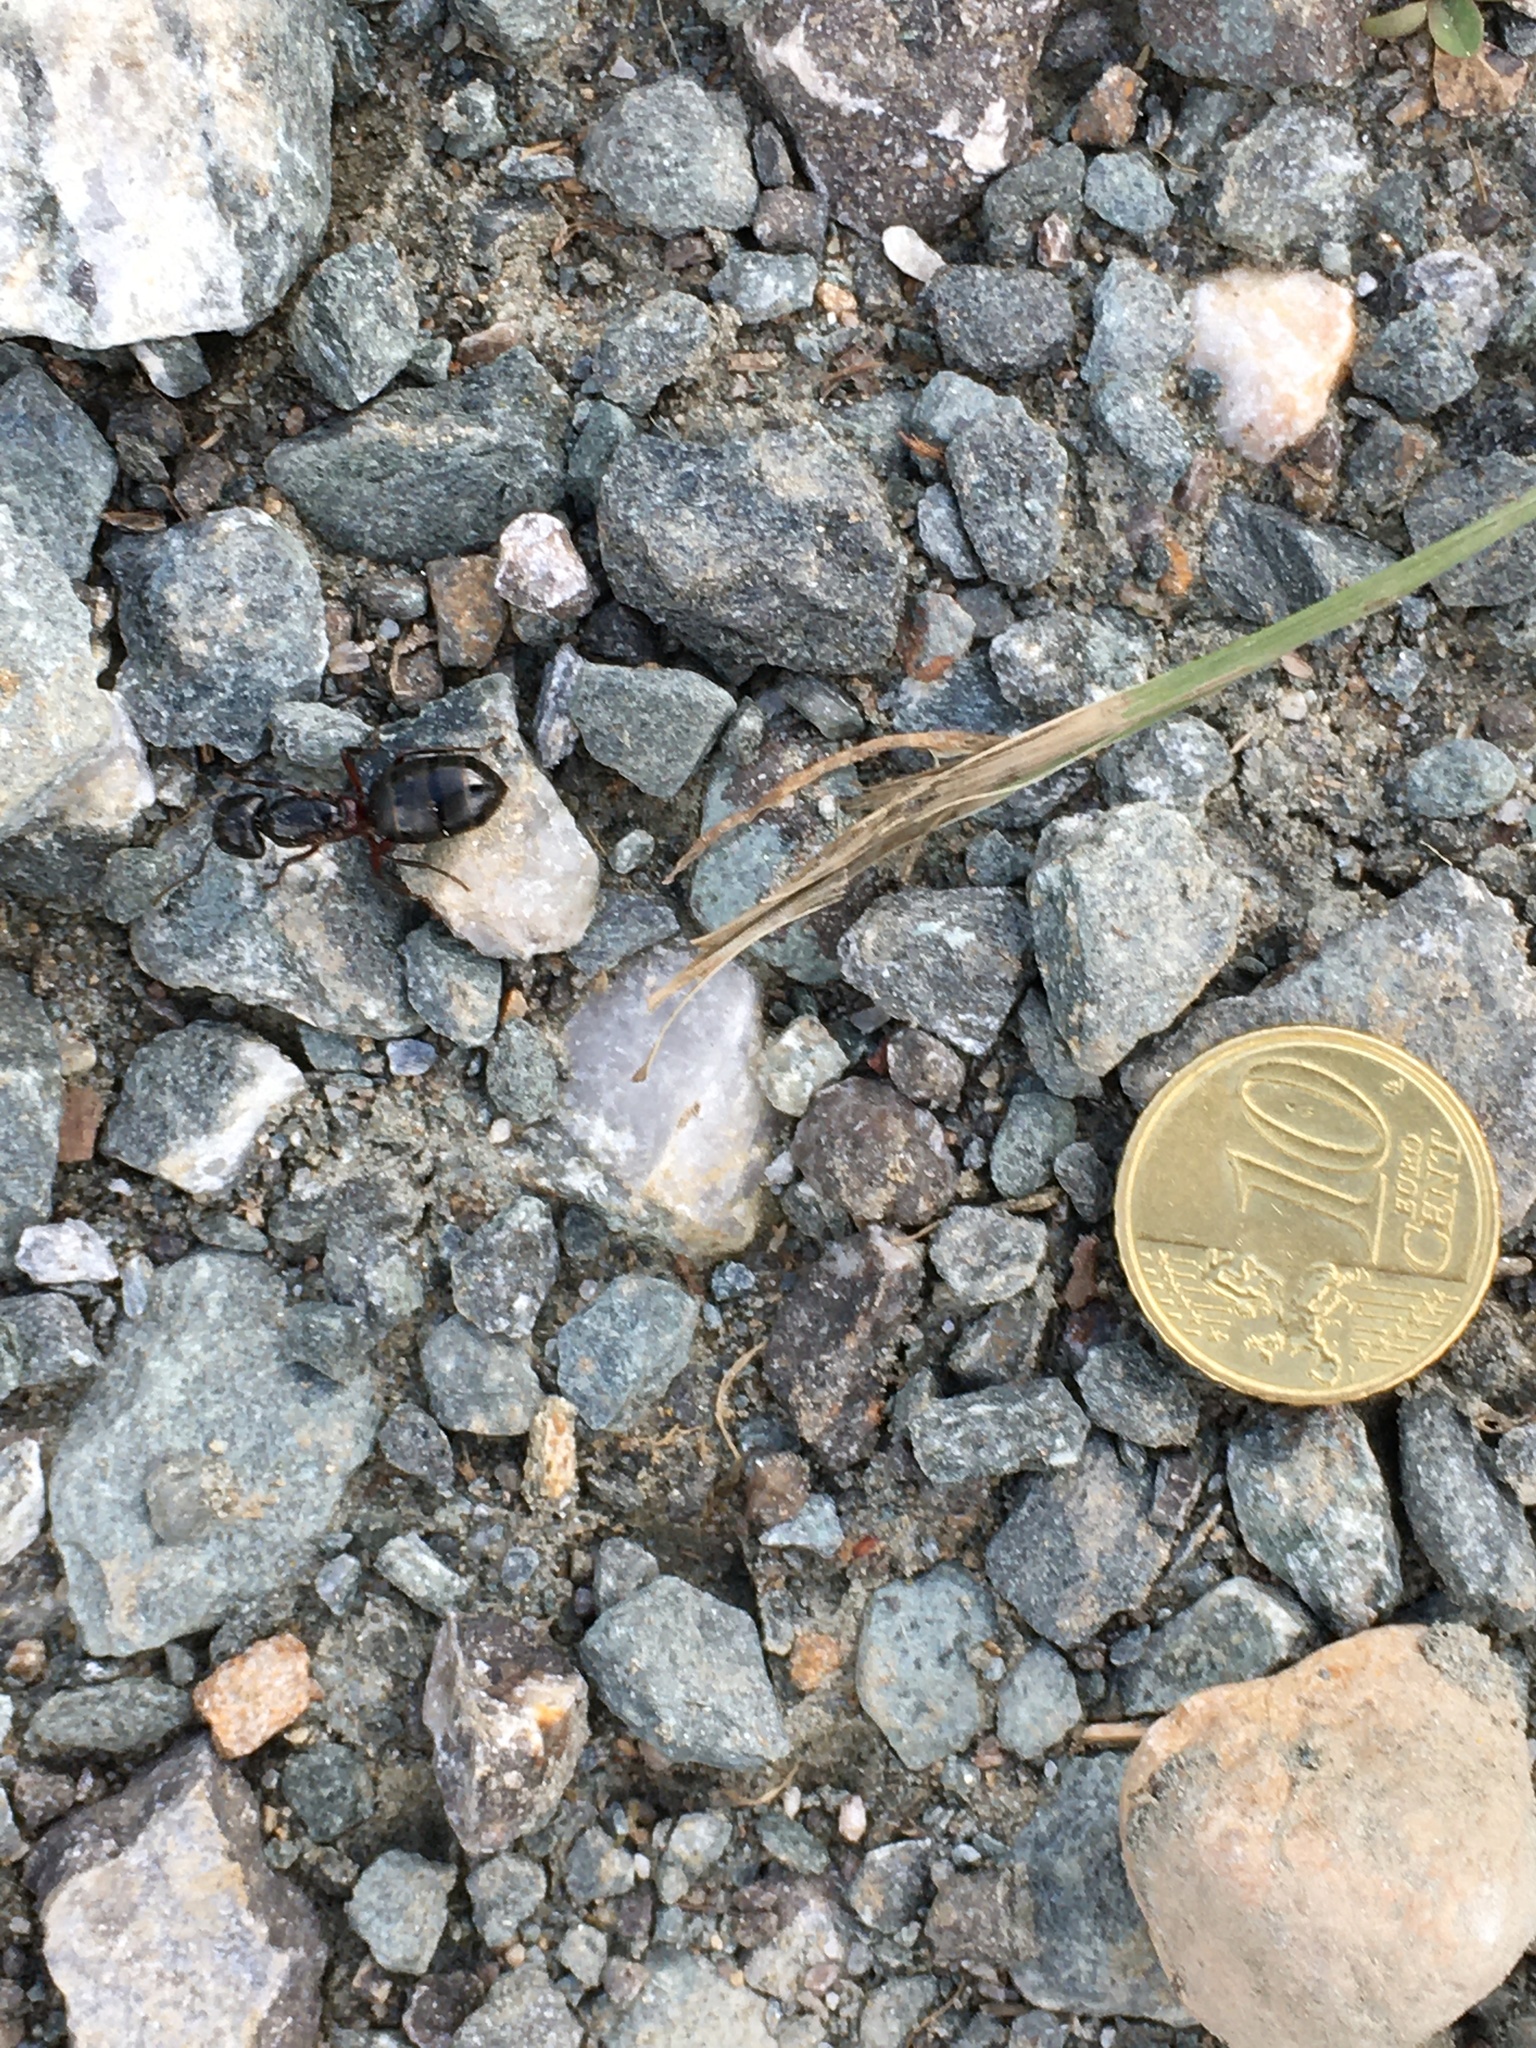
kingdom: Animalia
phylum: Arthropoda
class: Insecta
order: Hymenoptera
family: Formicidae
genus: Camponotus
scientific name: Camponotus herculeanus
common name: Hercules ant
